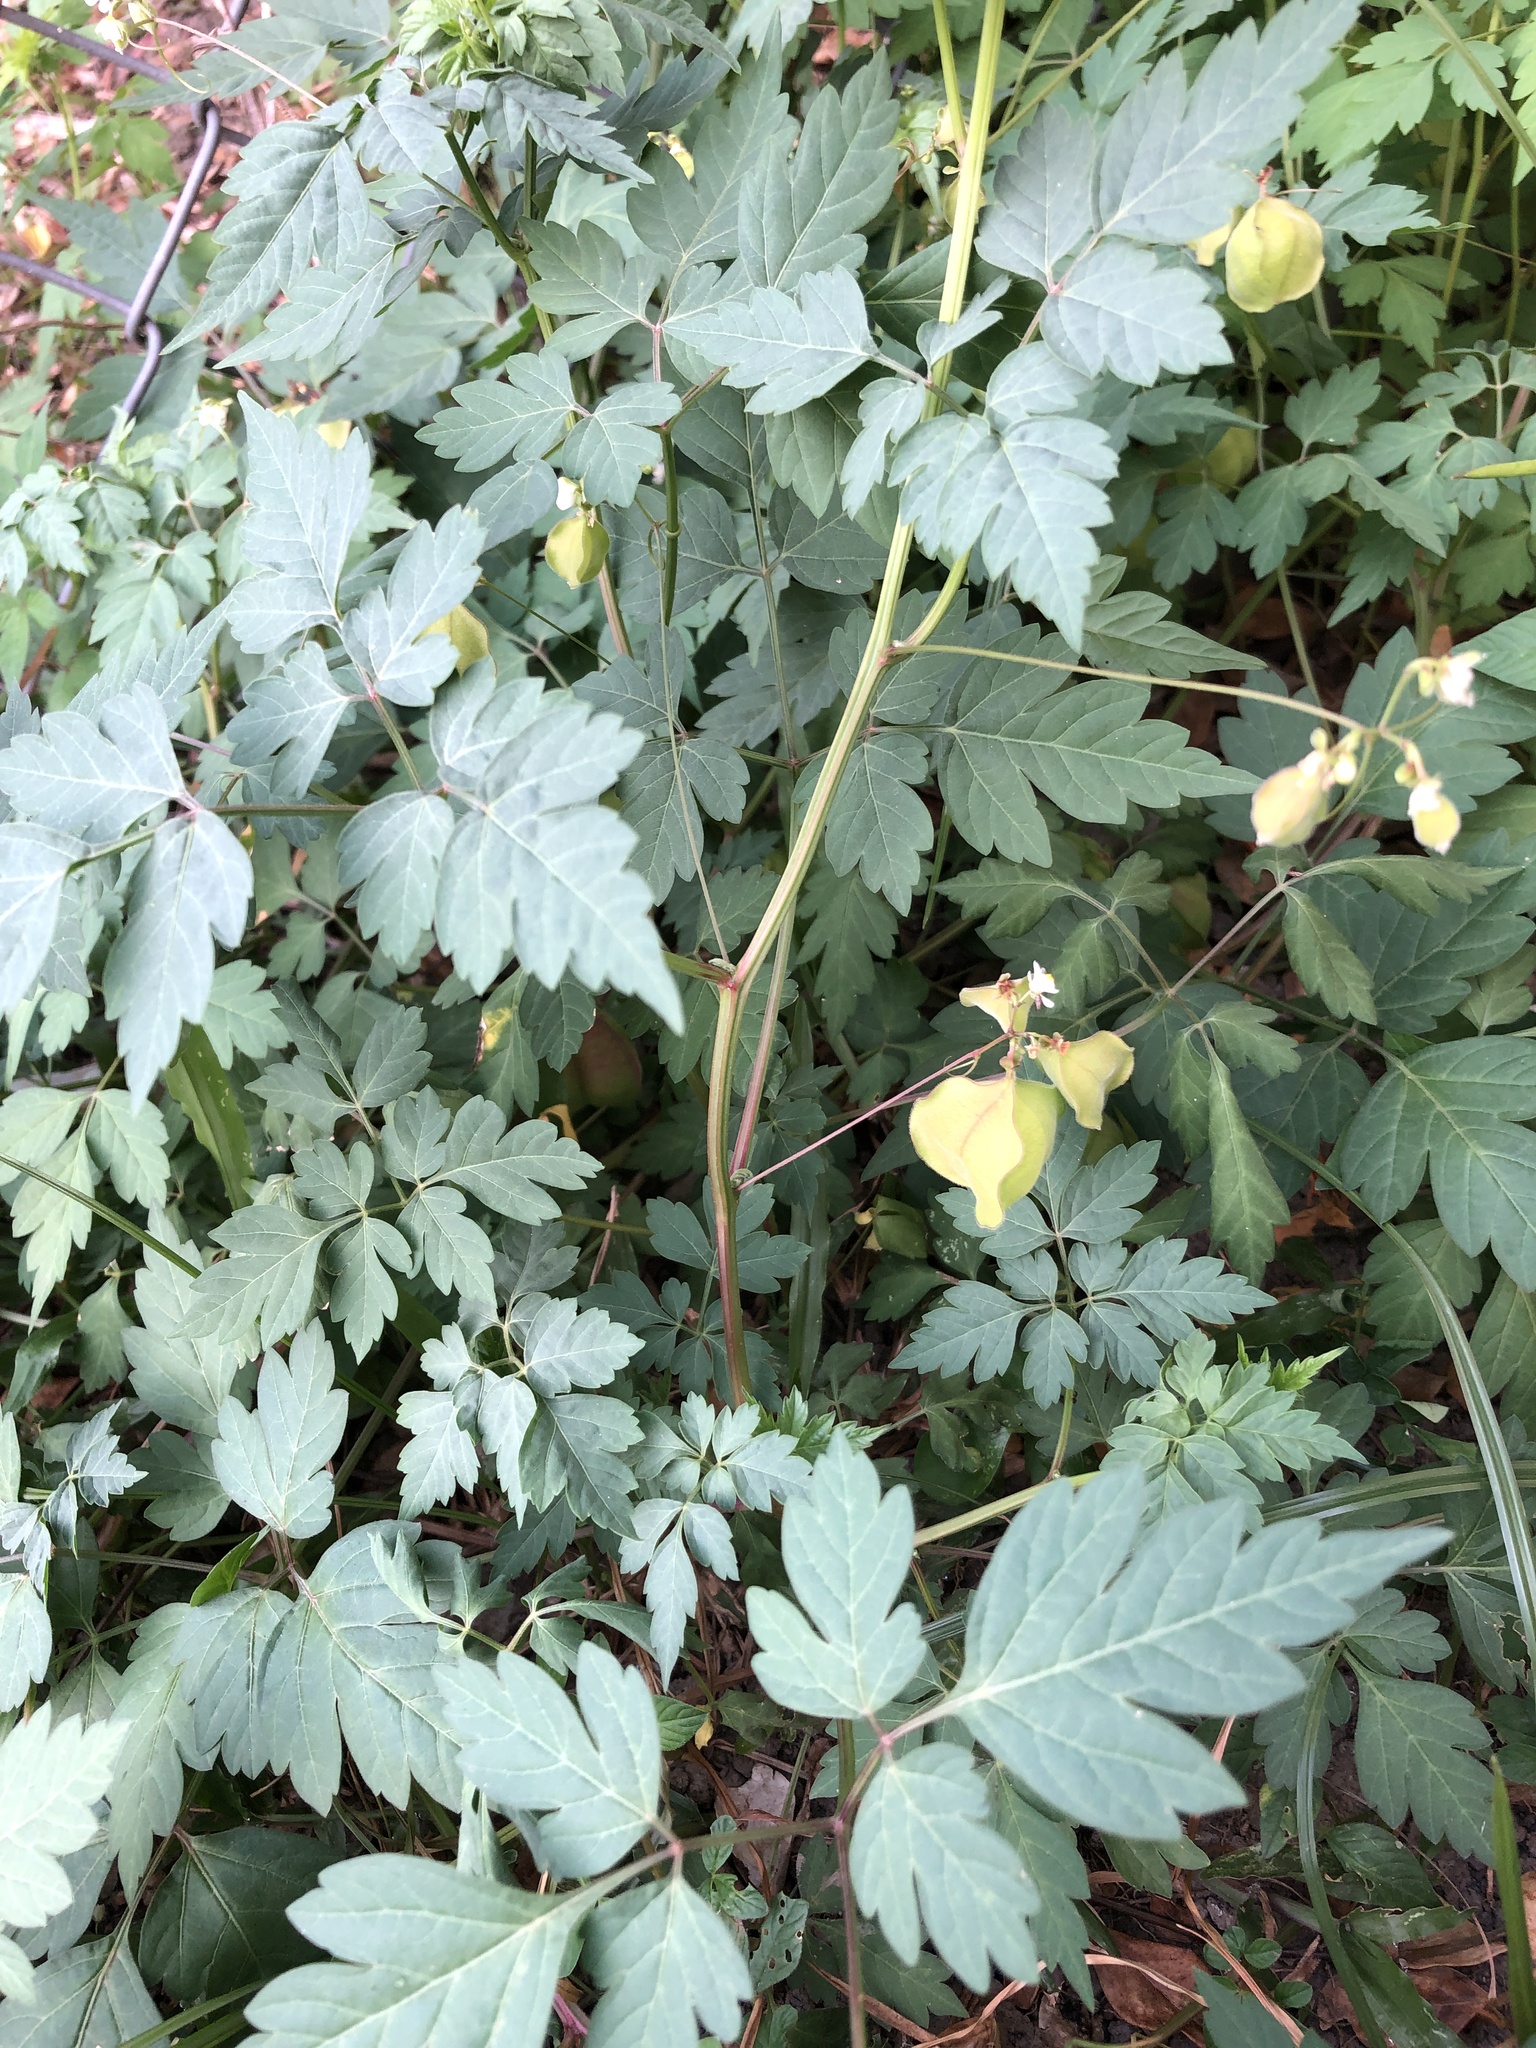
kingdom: Plantae
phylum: Tracheophyta
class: Magnoliopsida
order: Sapindales
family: Sapindaceae
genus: Cardiospermum
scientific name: Cardiospermum halicacabum
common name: Balloon vine
